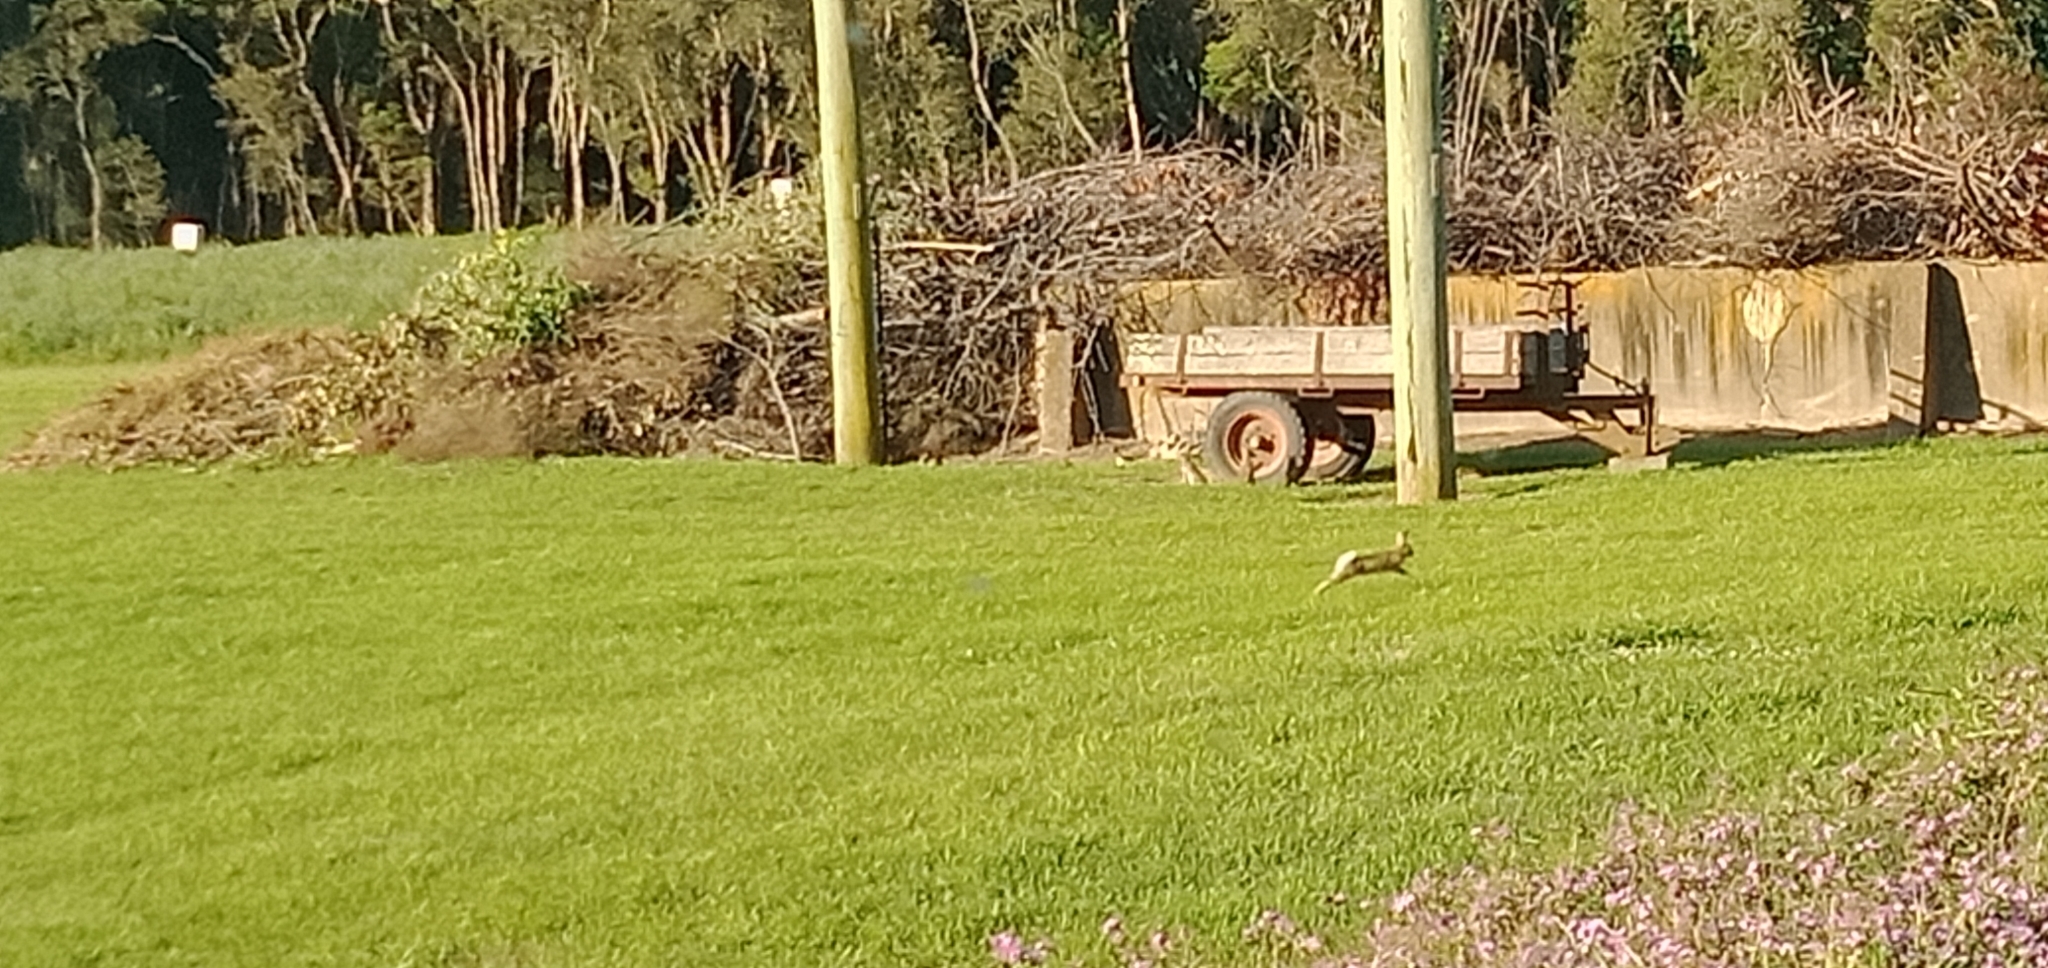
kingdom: Animalia
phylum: Chordata
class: Mammalia
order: Lagomorpha
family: Leporidae
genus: Oryctolagus
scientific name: Oryctolagus cuniculus
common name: European rabbit
